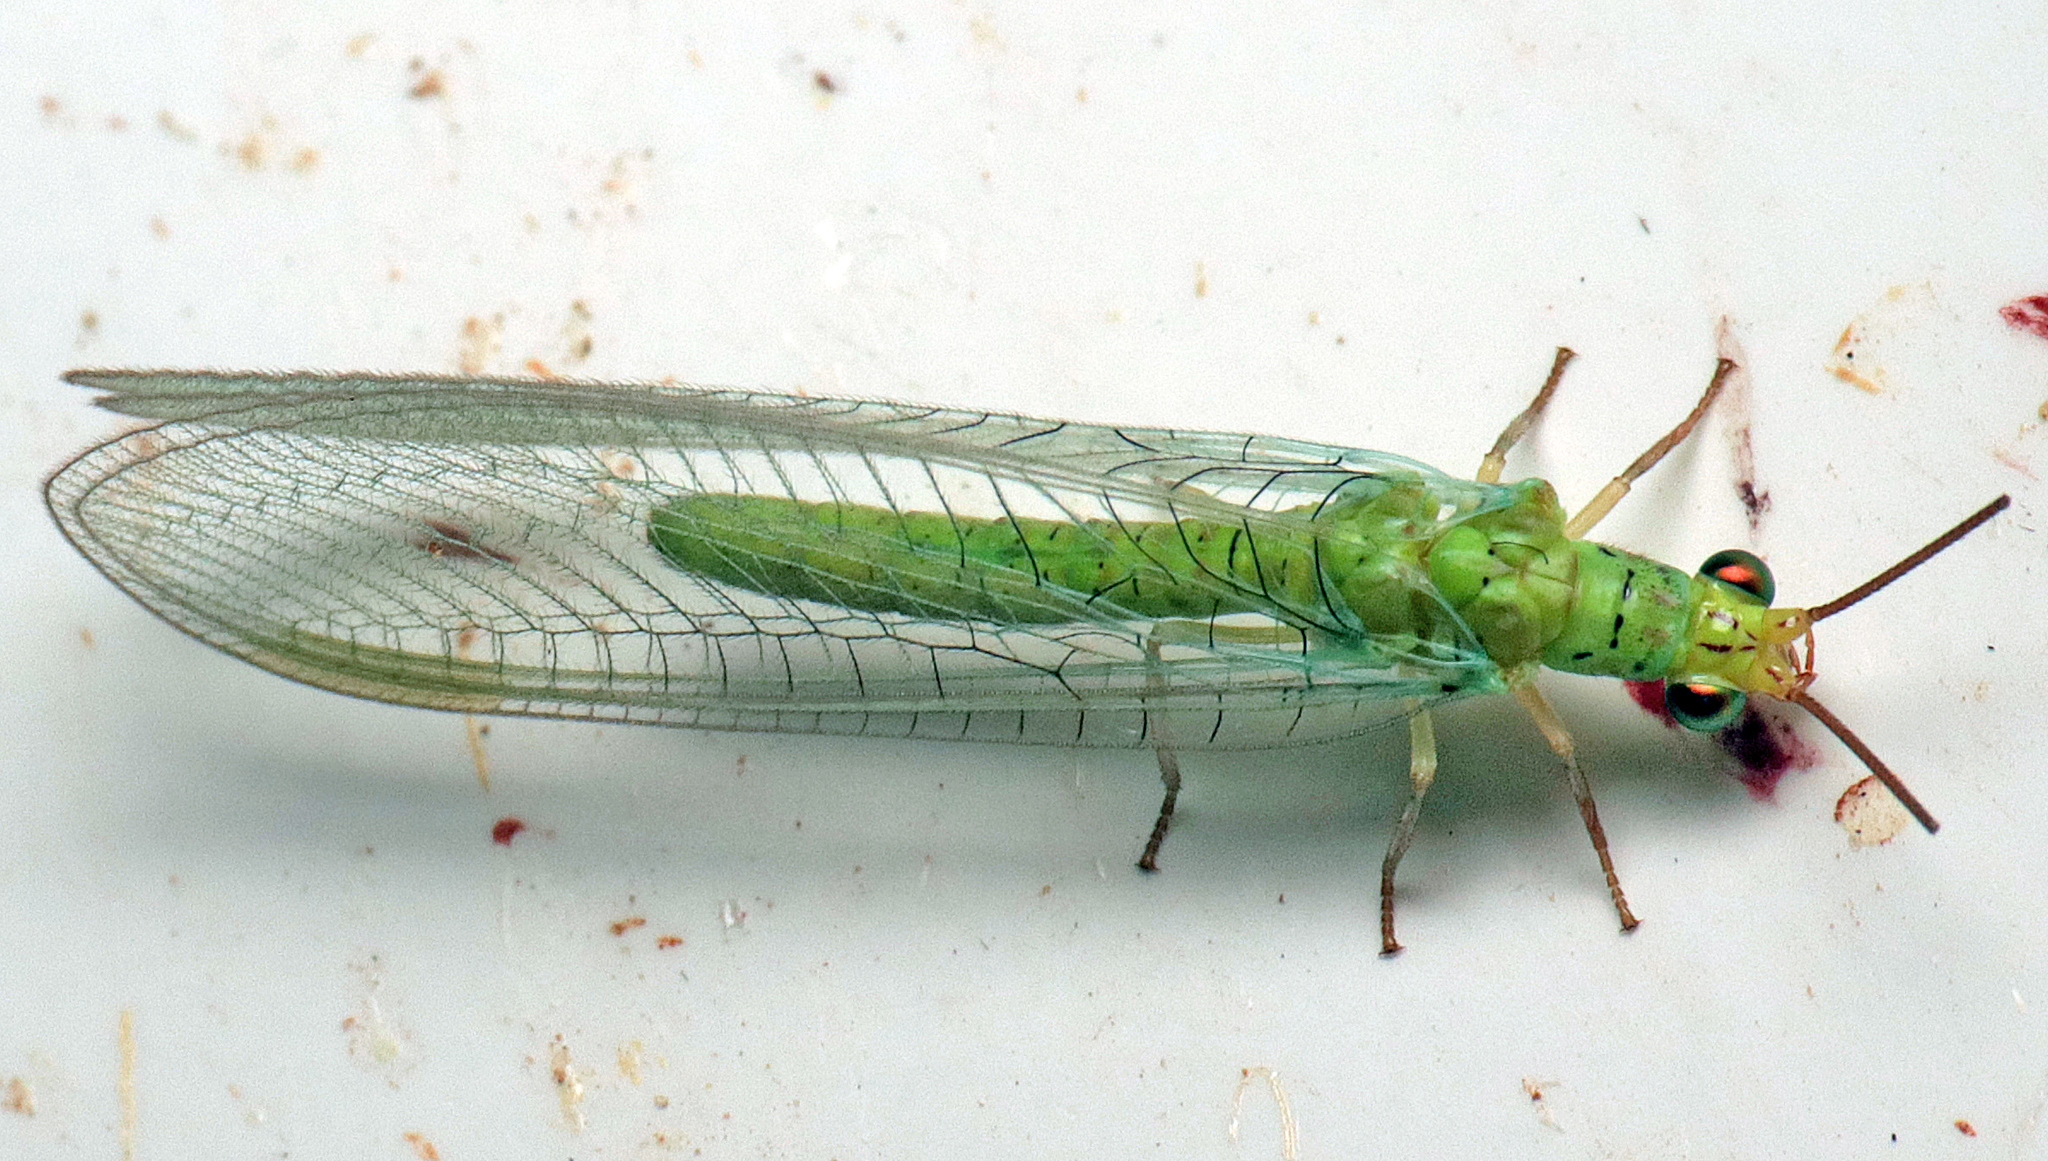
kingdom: Animalia
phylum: Arthropoda
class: Insecta
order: Neuroptera
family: Chrysopidae
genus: Plesiochrysa
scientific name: Plesiochrysa ramburi
